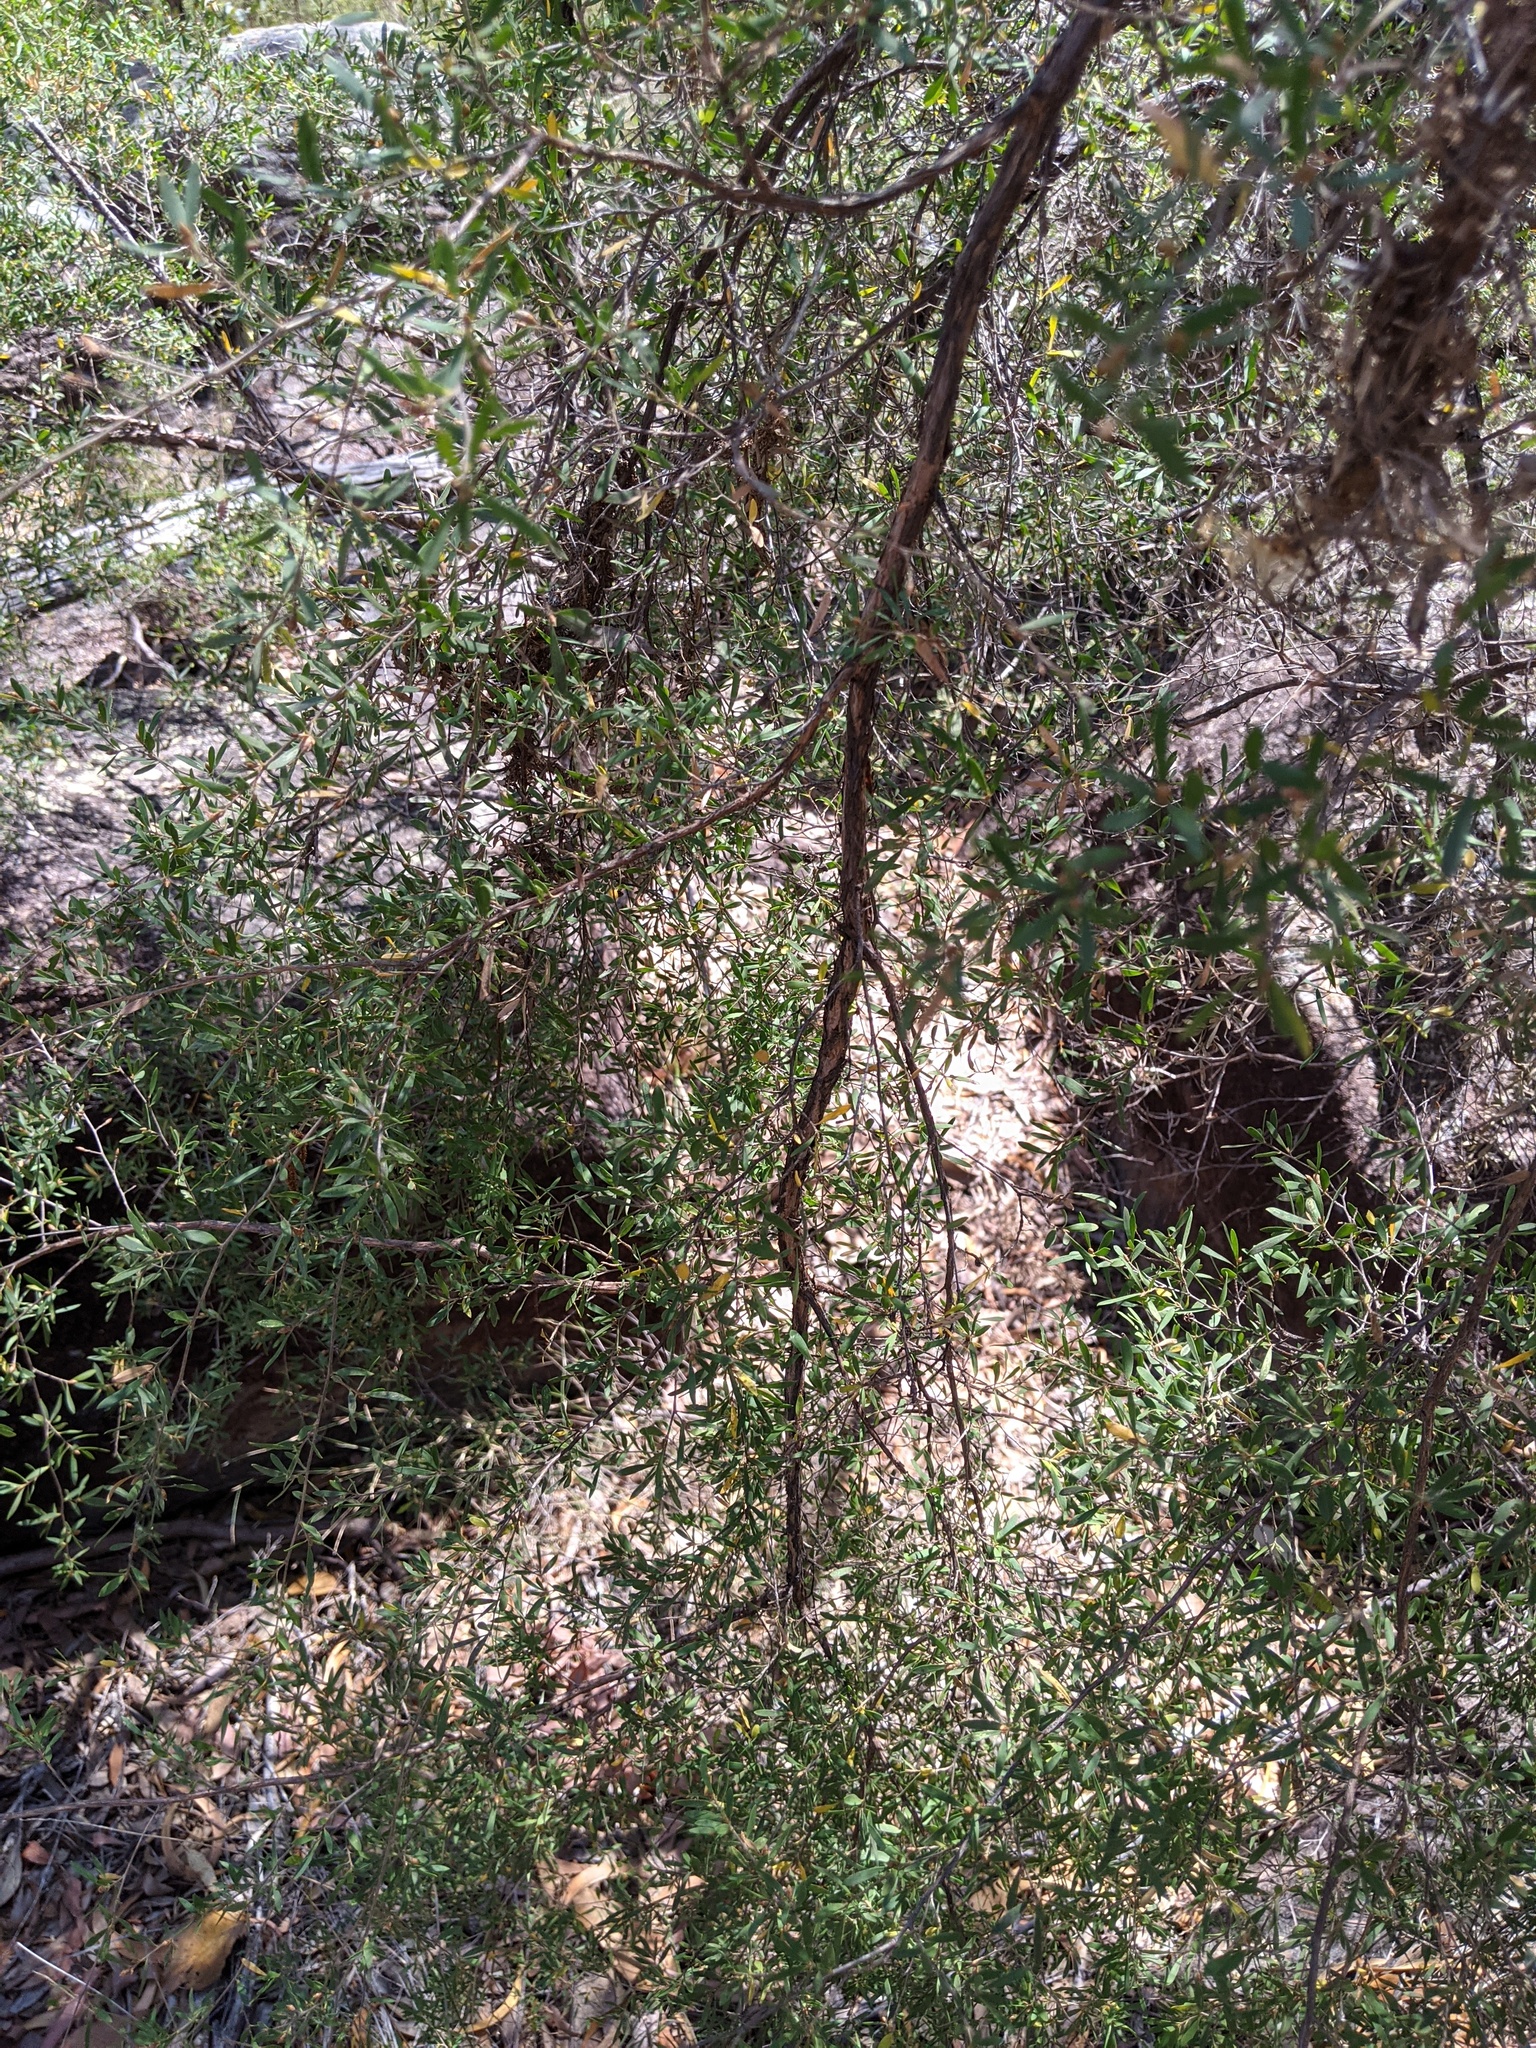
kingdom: Plantae
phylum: Tracheophyta
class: Magnoliopsida
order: Myrtales
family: Myrtaceae
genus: Leptospermum
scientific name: Leptospermum trinervium
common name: Flaky-barked tea-tree
